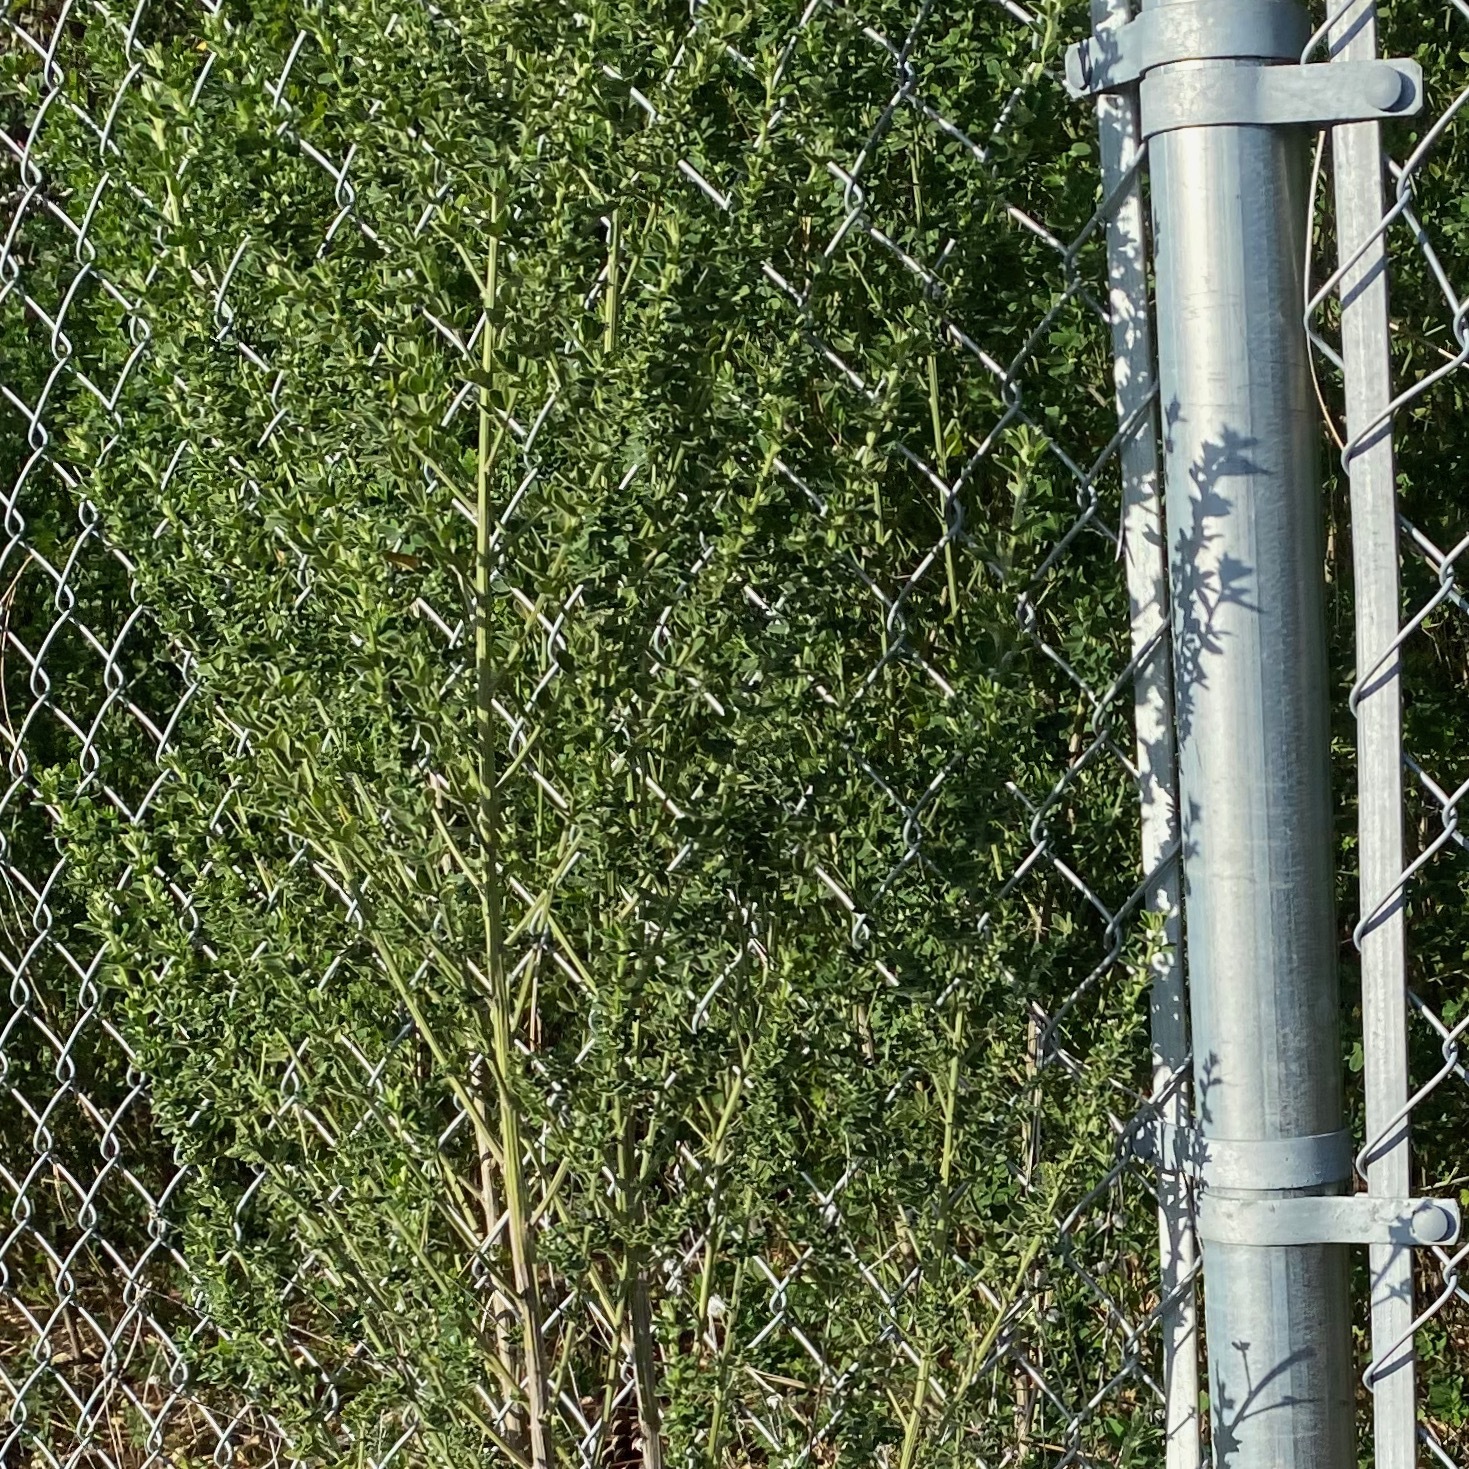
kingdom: Plantae
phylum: Tracheophyta
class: Magnoliopsida
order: Fabales
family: Fabaceae
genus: Genista
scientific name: Genista monspessulana
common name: Montpellier broom
